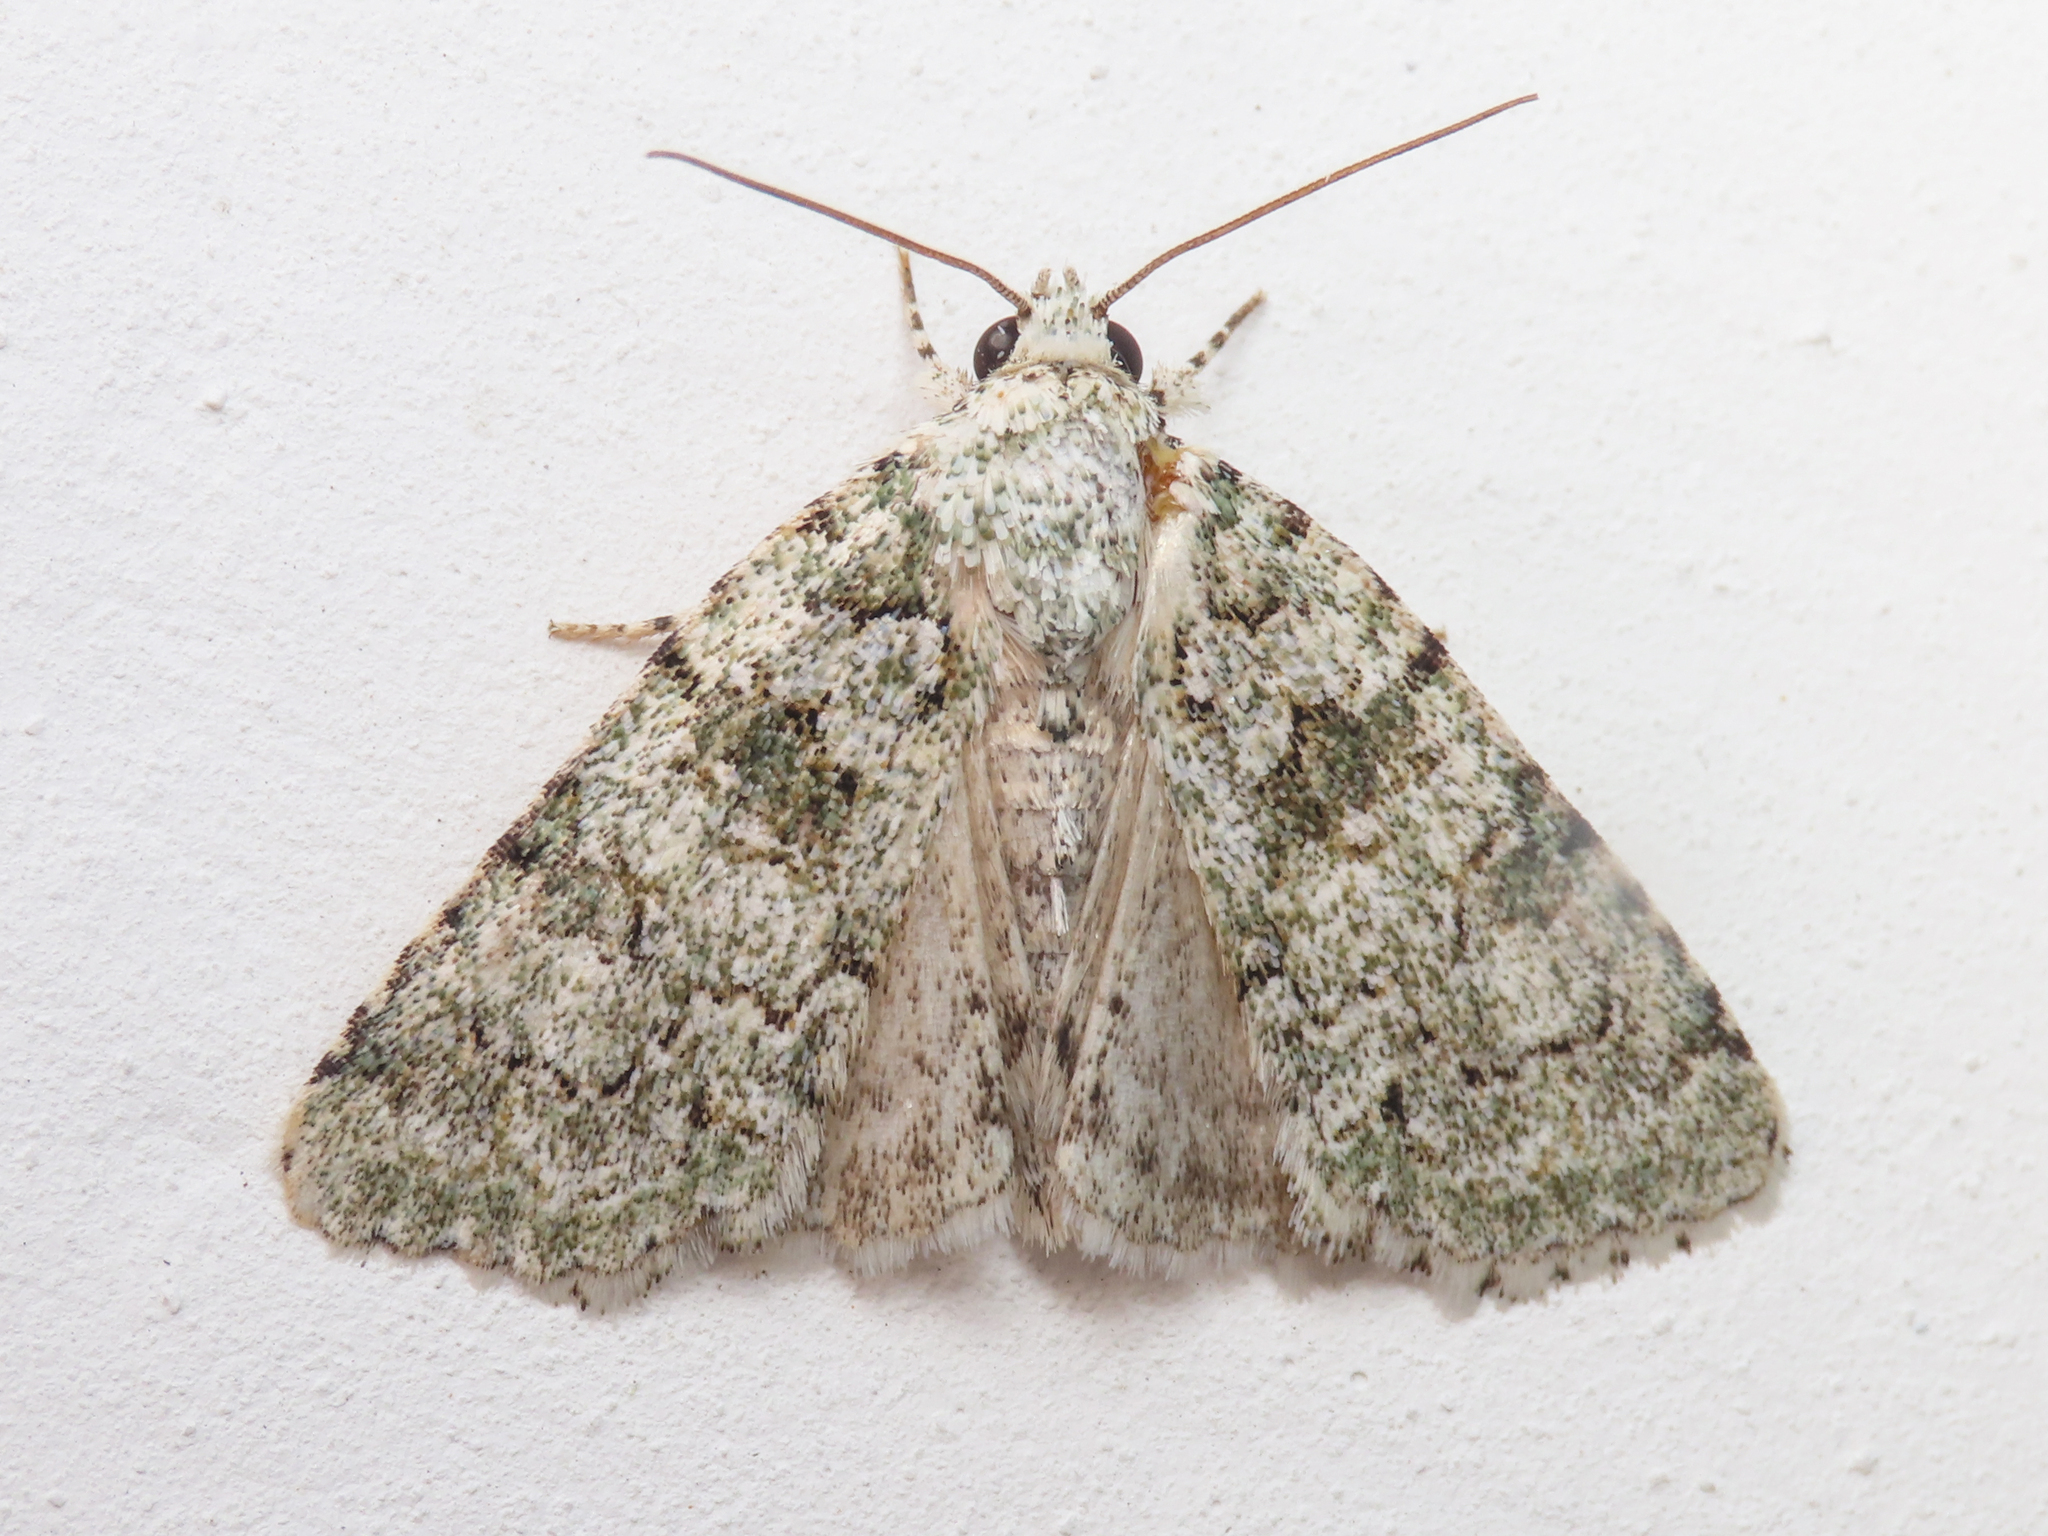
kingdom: Animalia
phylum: Arthropoda
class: Insecta
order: Lepidoptera
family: Noctuidae
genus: Nyctobrya
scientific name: Nyctobrya muralis
